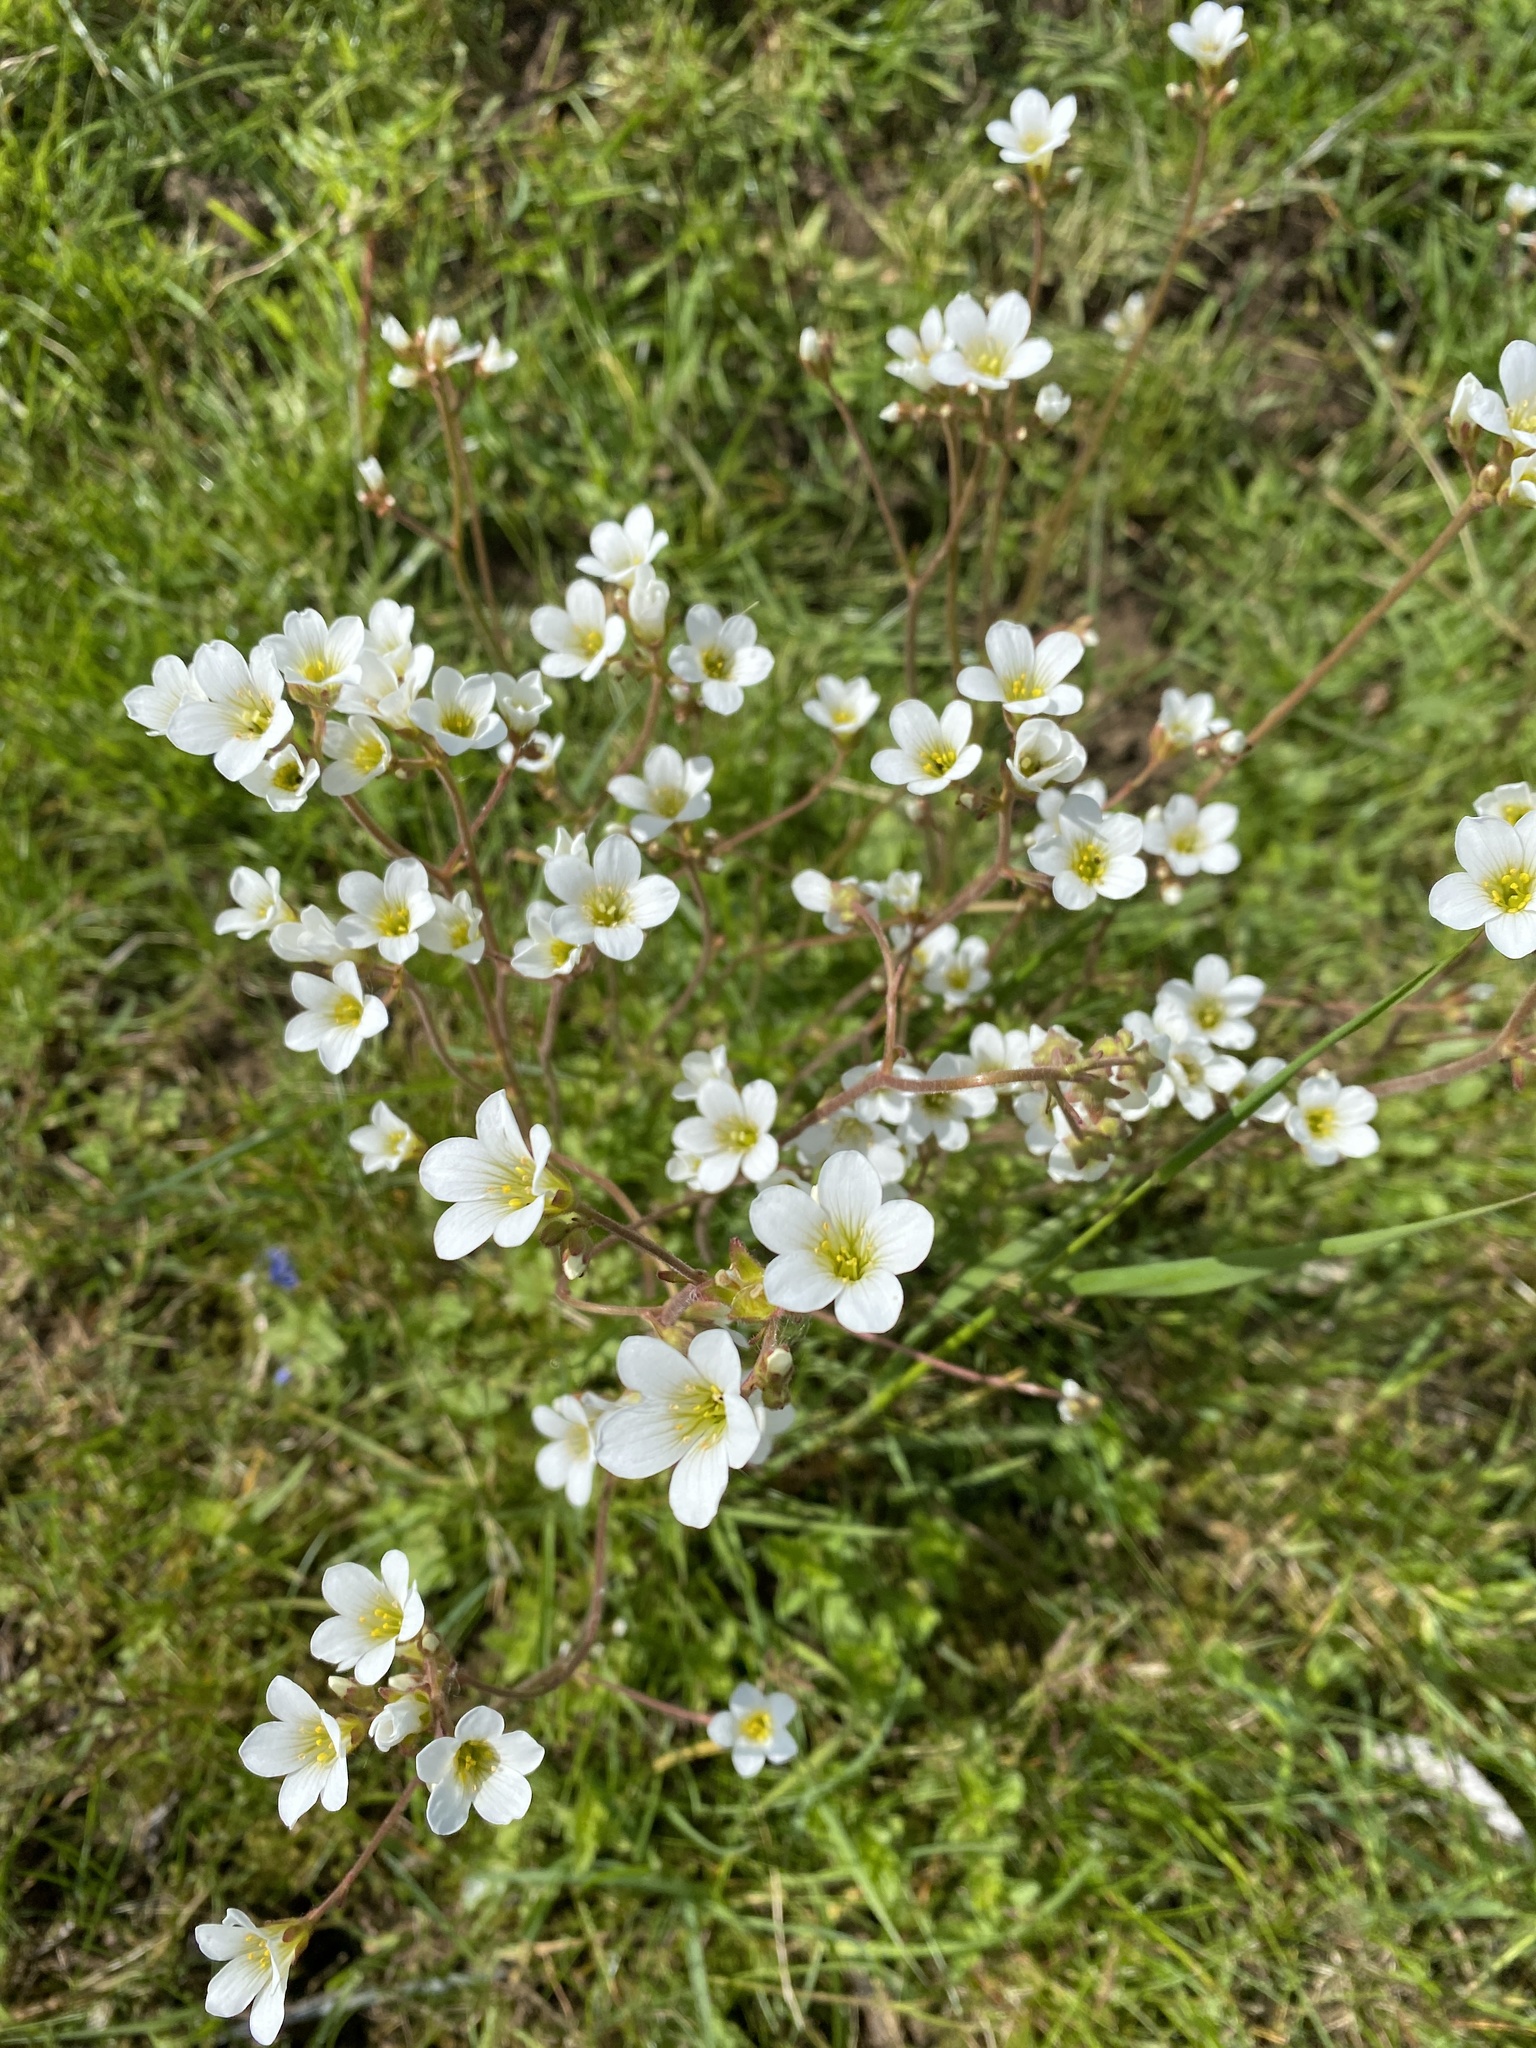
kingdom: Plantae
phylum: Tracheophyta
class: Magnoliopsida
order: Saxifragales
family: Saxifragaceae
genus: Saxifraga
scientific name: Saxifraga granulata
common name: Meadow saxifrage
